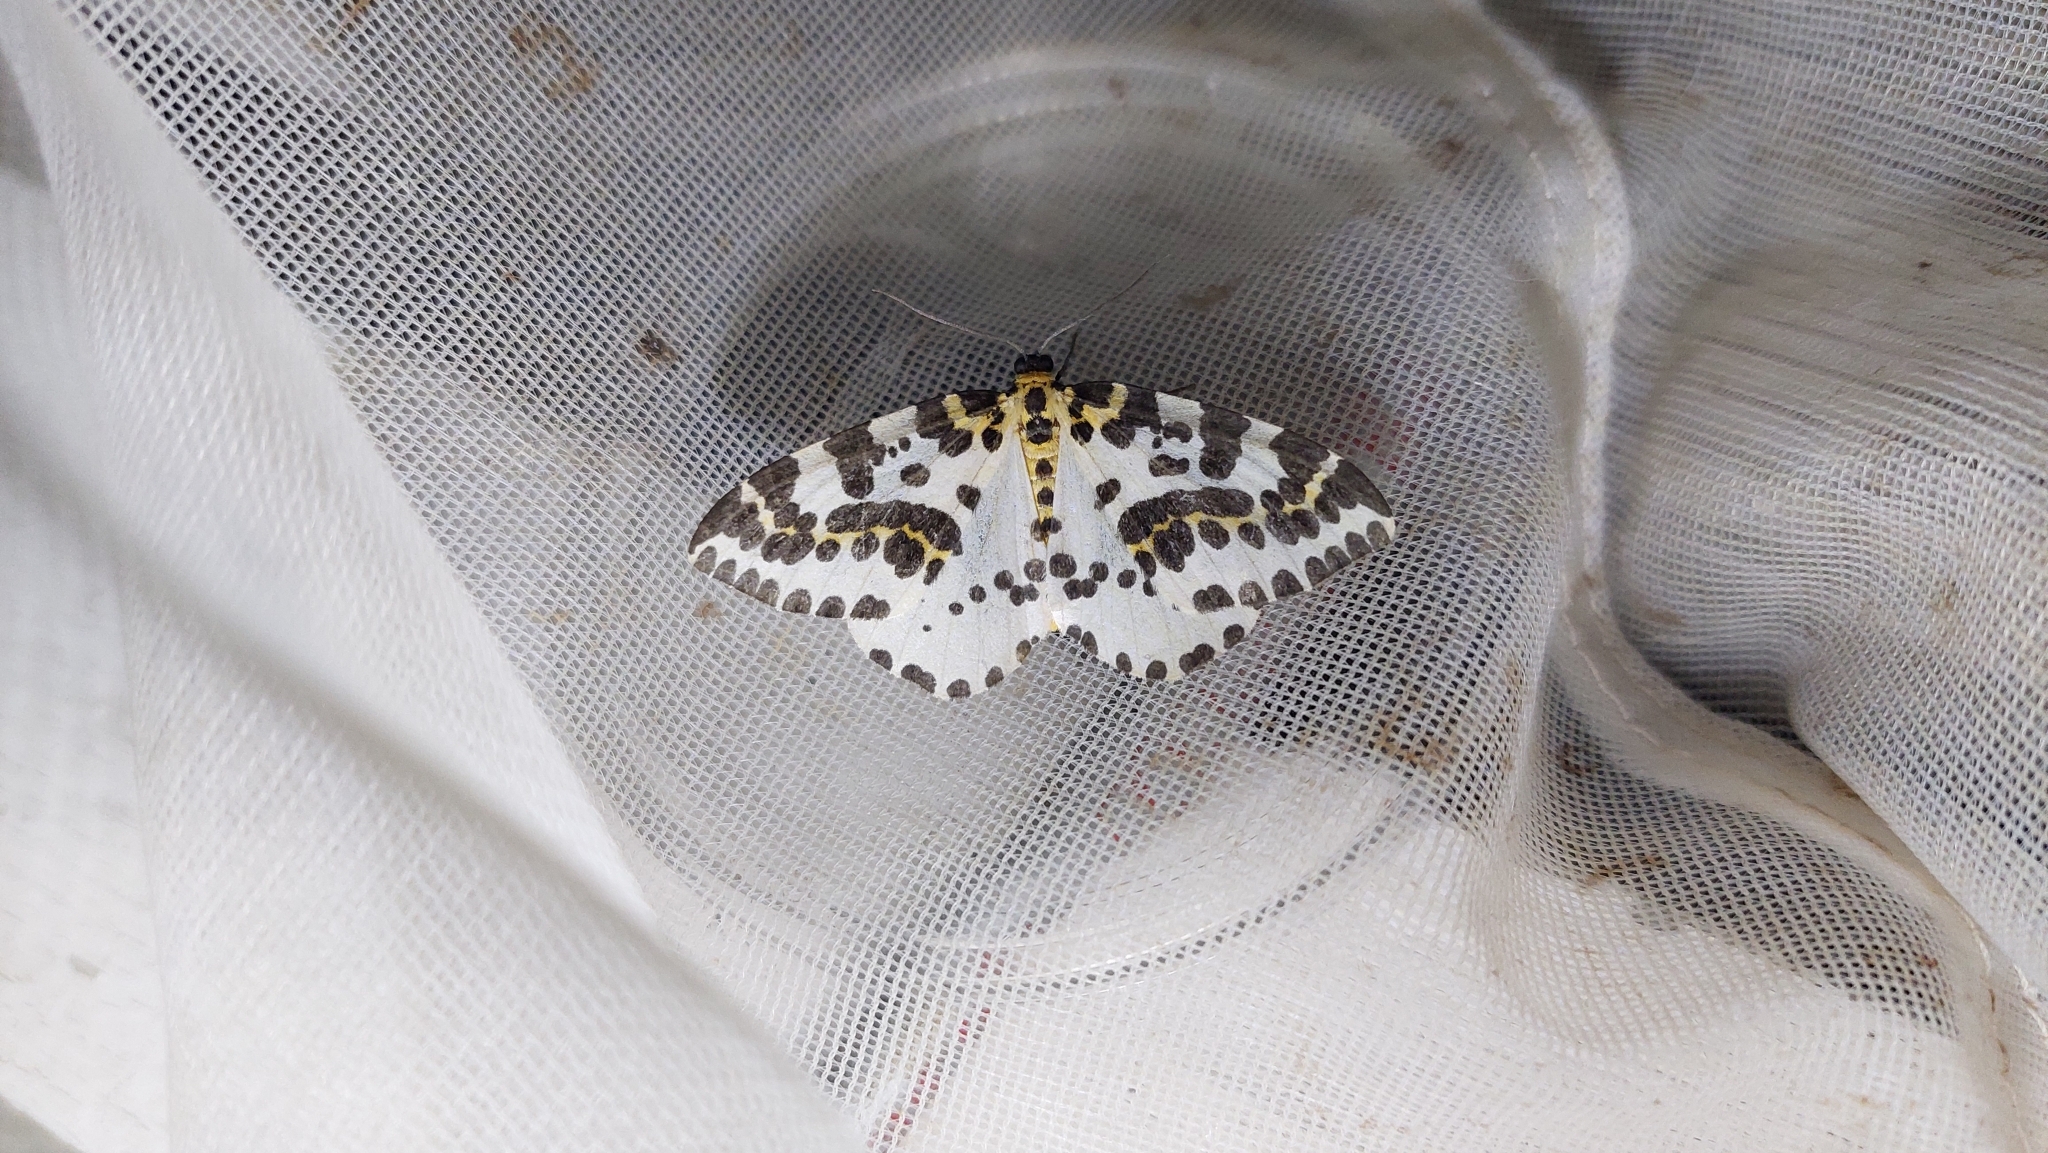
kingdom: Animalia
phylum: Arthropoda
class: Insecta
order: Lepidoptera
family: Geometridae
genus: Abraxas
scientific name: Abraxas grossulariata
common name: Magpie
